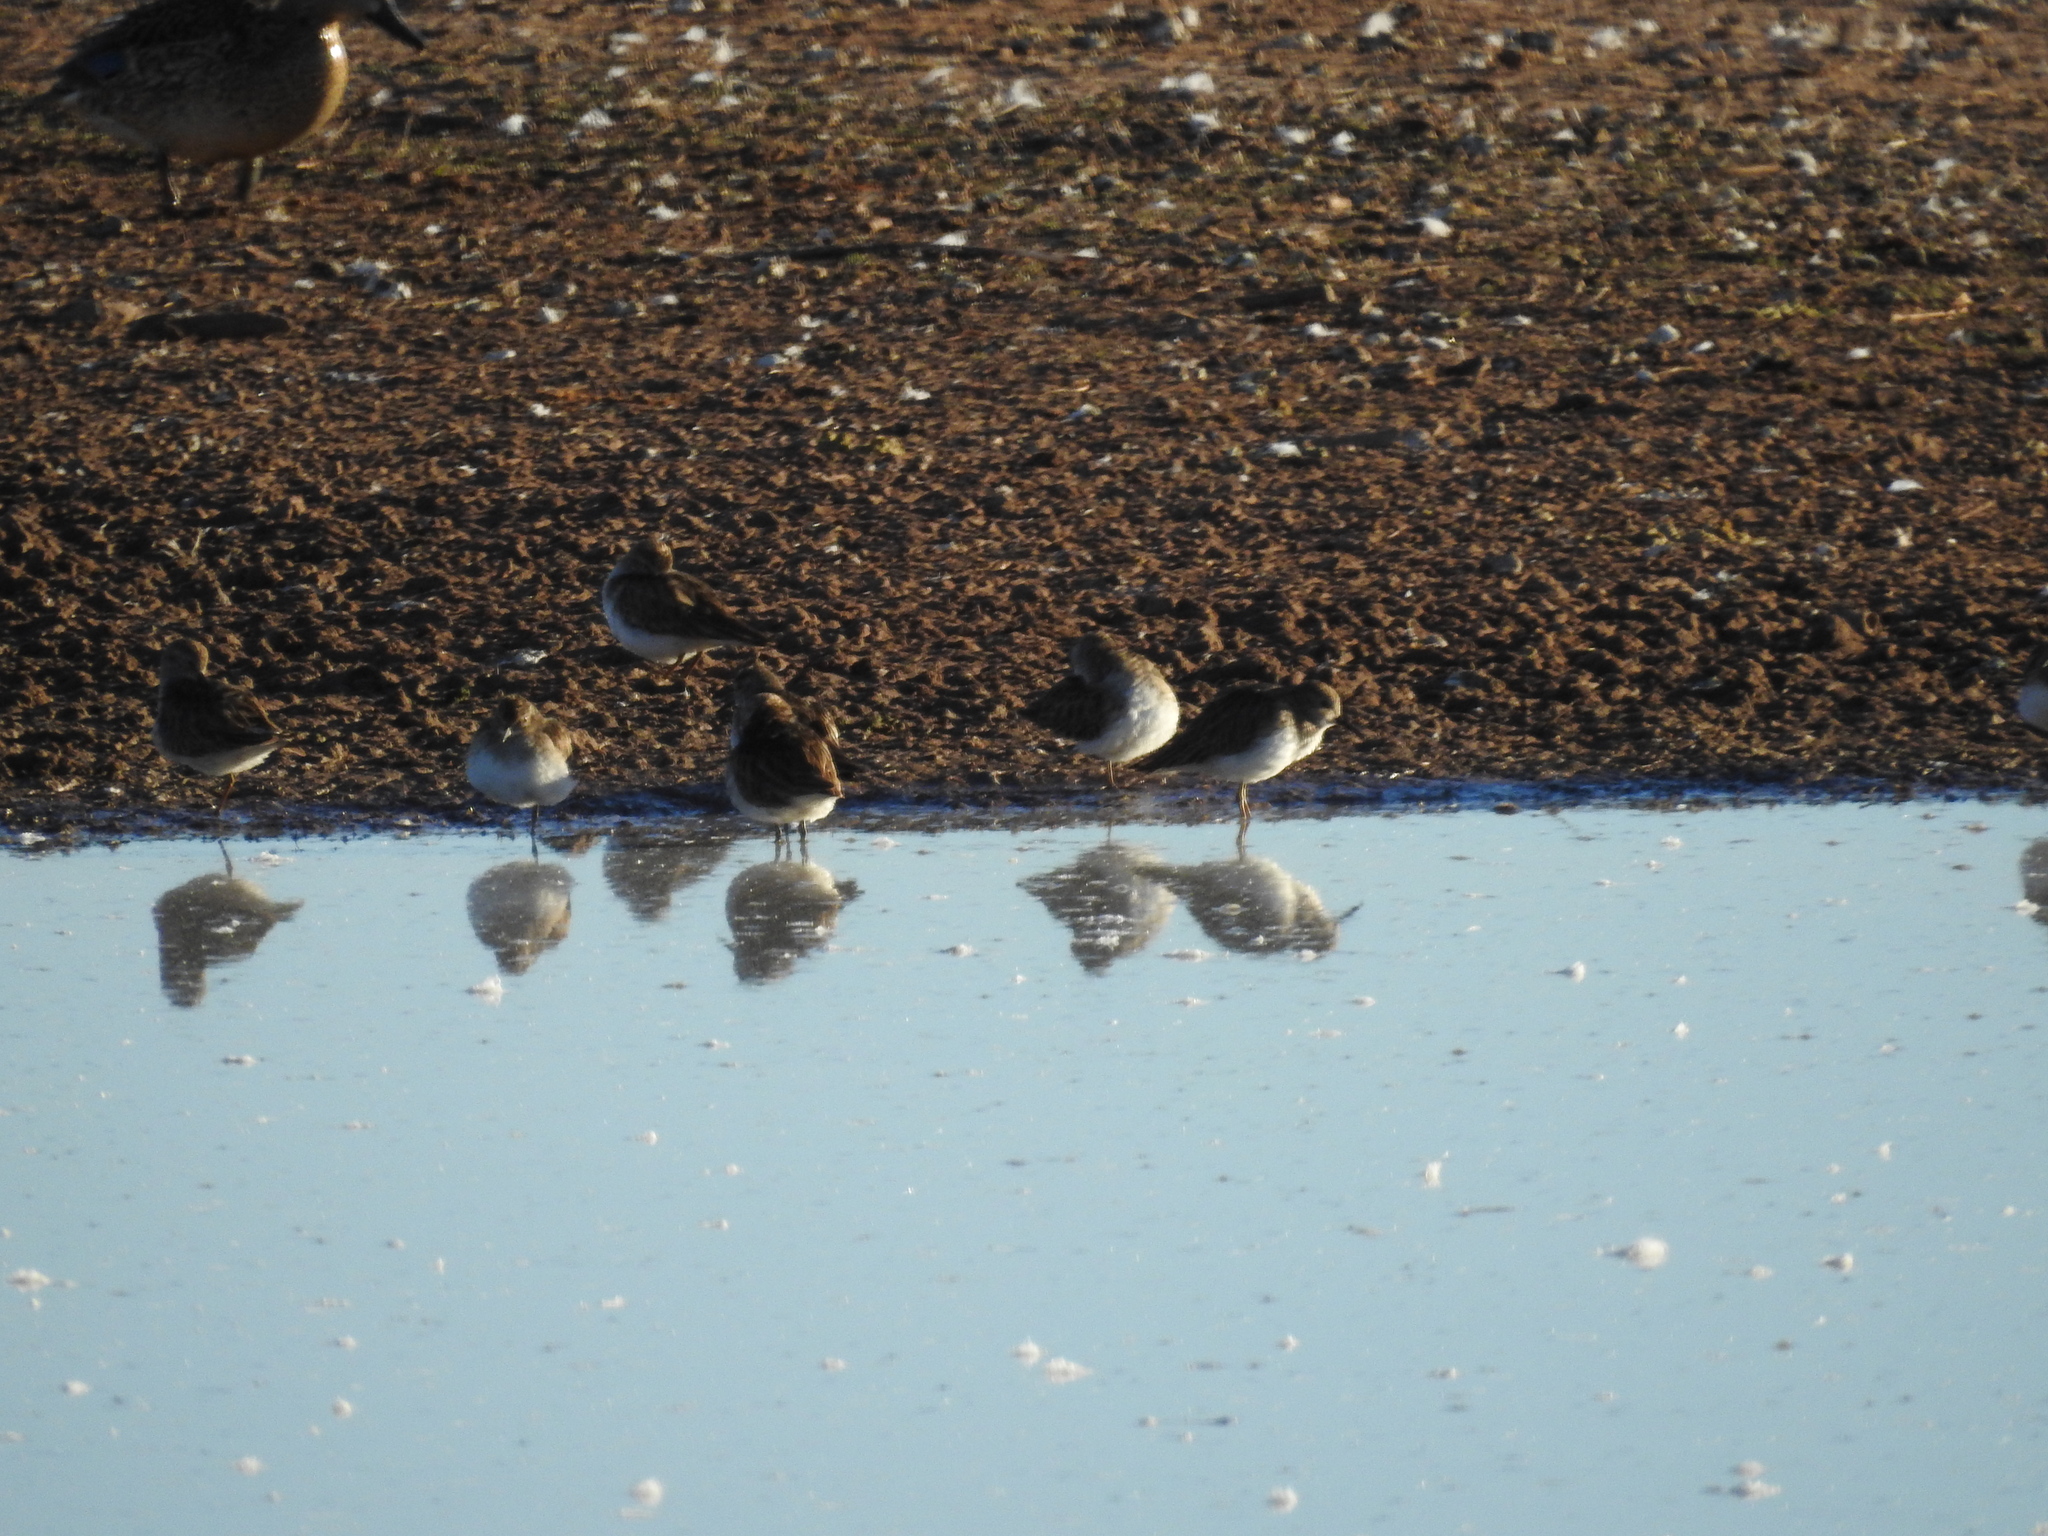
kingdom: Animalia
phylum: Chordata
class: Aves
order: Charadriiformes
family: Scolopacidae
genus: Calidris
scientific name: Calidris minutilla
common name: Least sandpiper
